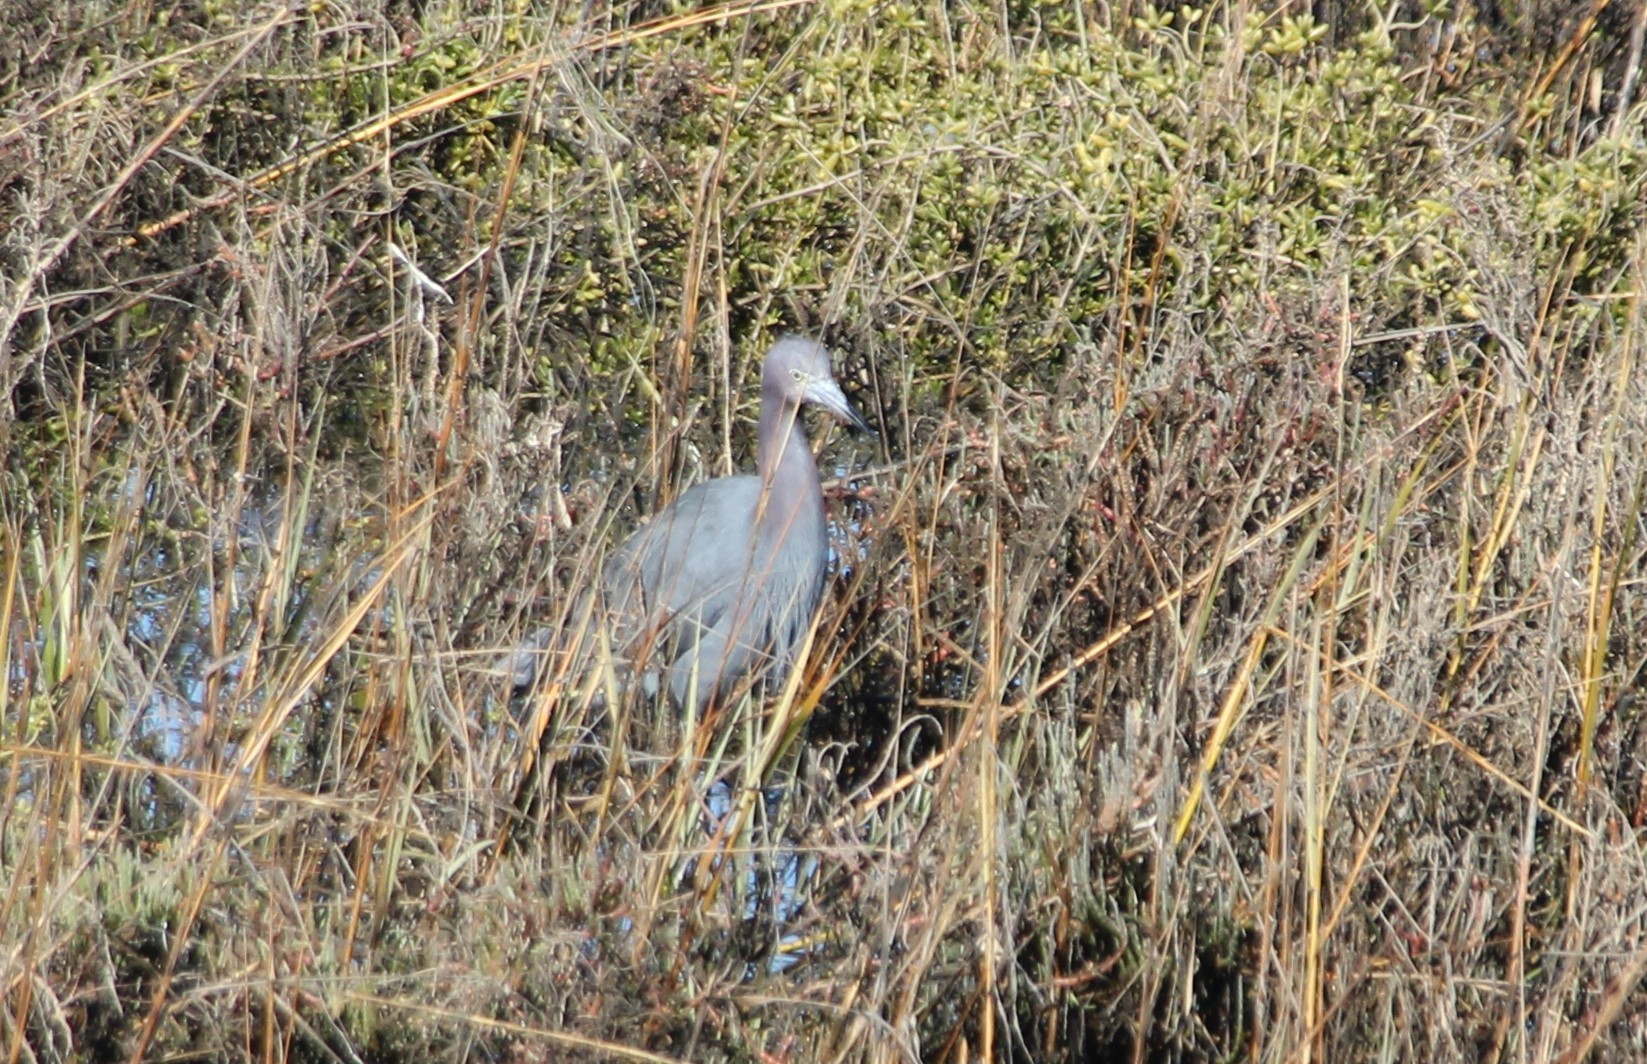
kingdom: Animalia
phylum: Chordata
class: Aves
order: Pelecaniformes
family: Ardeidae
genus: Egretta
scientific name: Egretta caerulea
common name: Little blue heron
